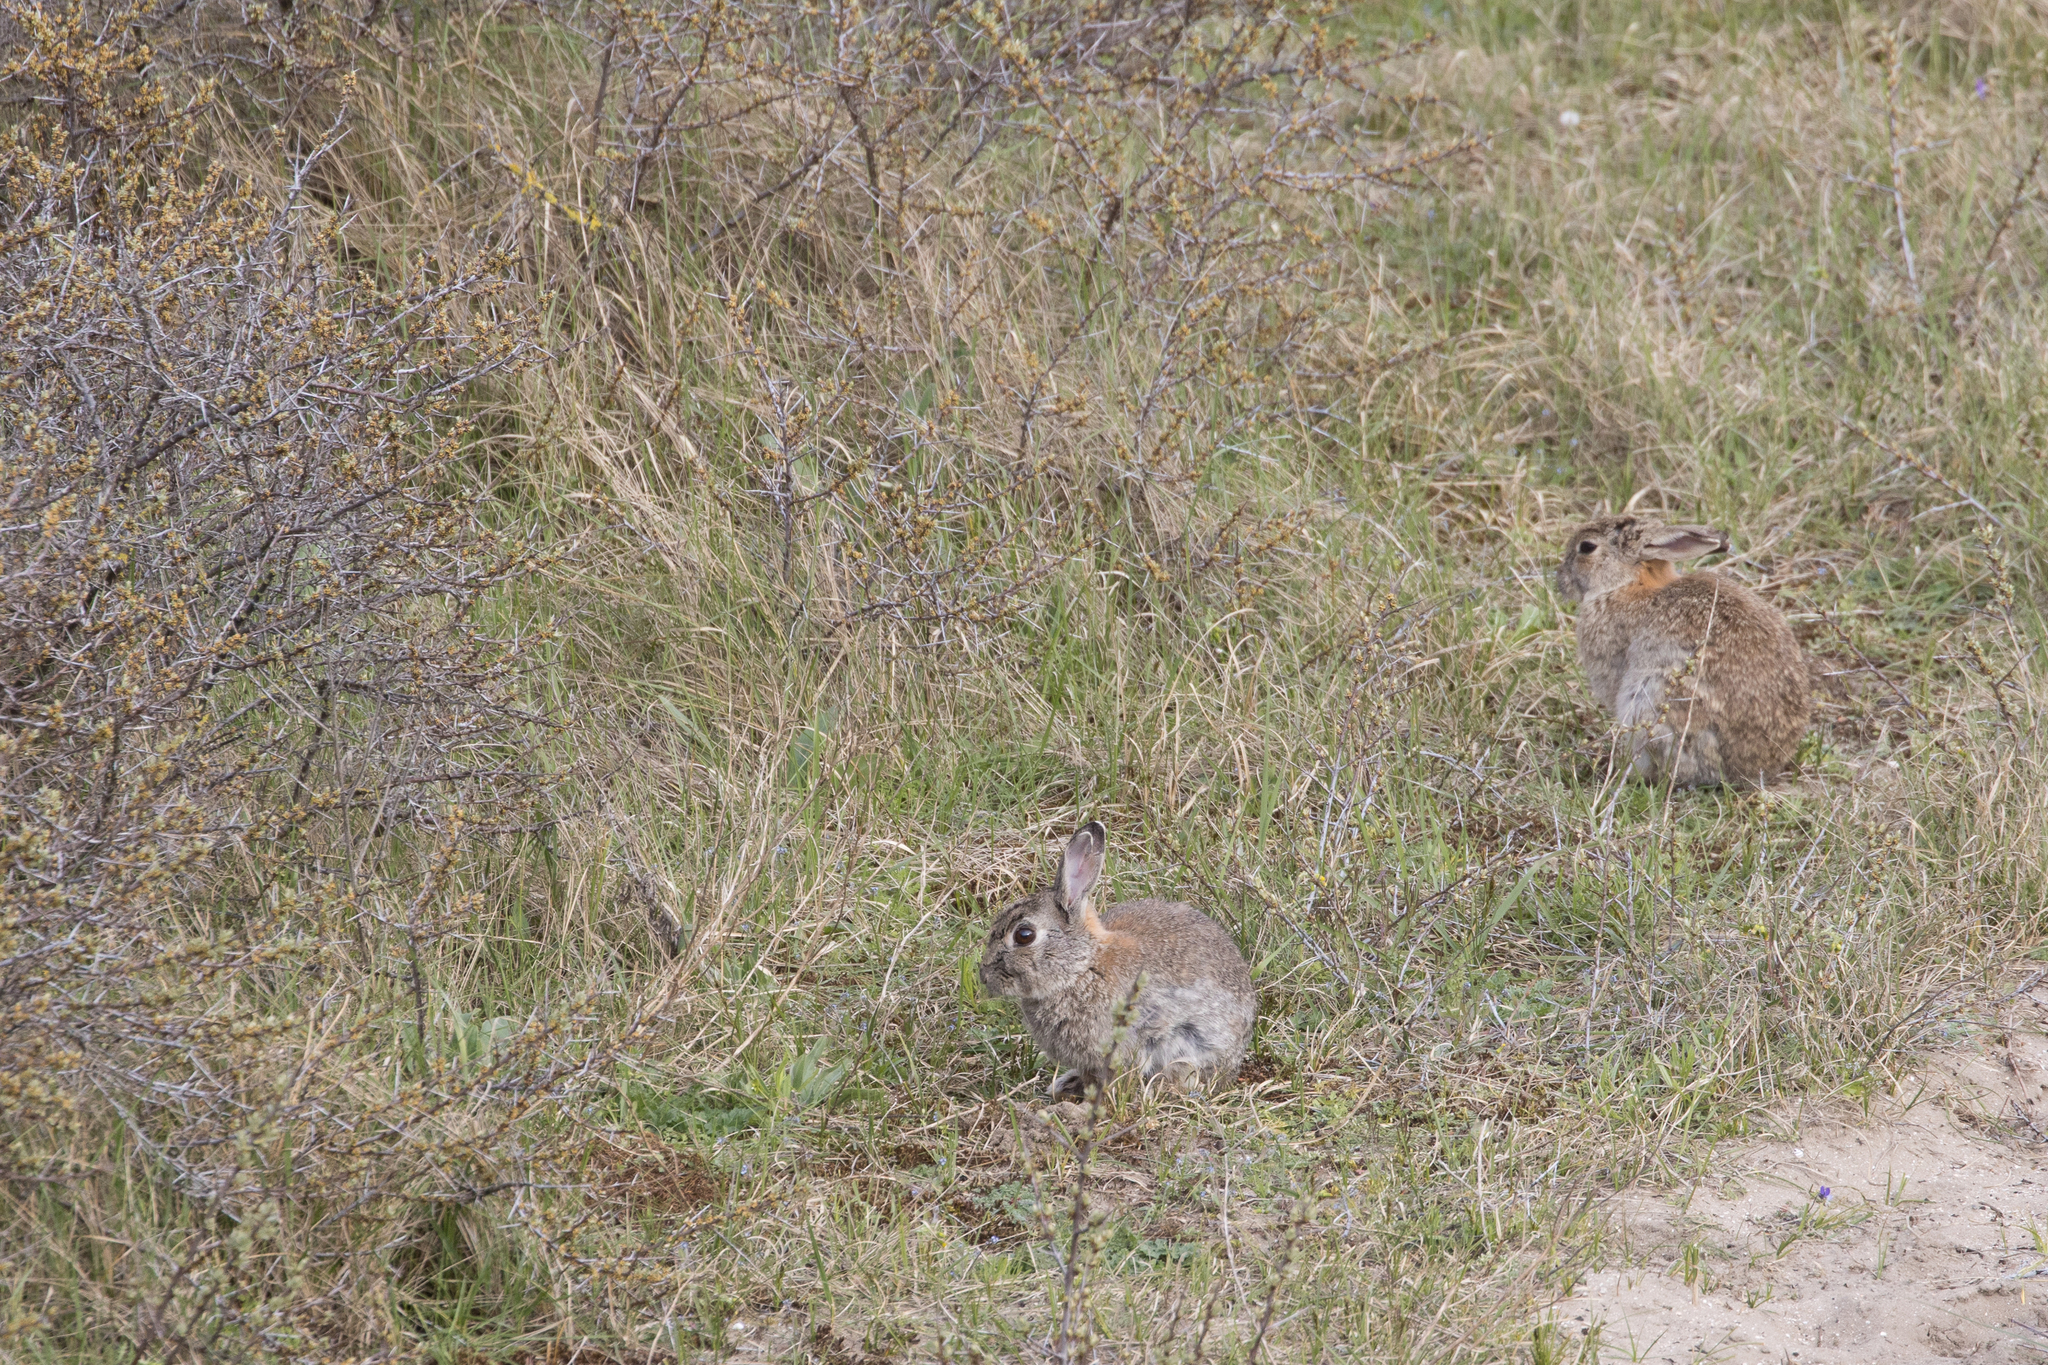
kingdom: Animalia
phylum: Chordata
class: Mammalia
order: Lagomorpha
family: Leporidae
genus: Oryctolagus
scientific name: Oryctolagus cuniculus
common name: European rabbit
